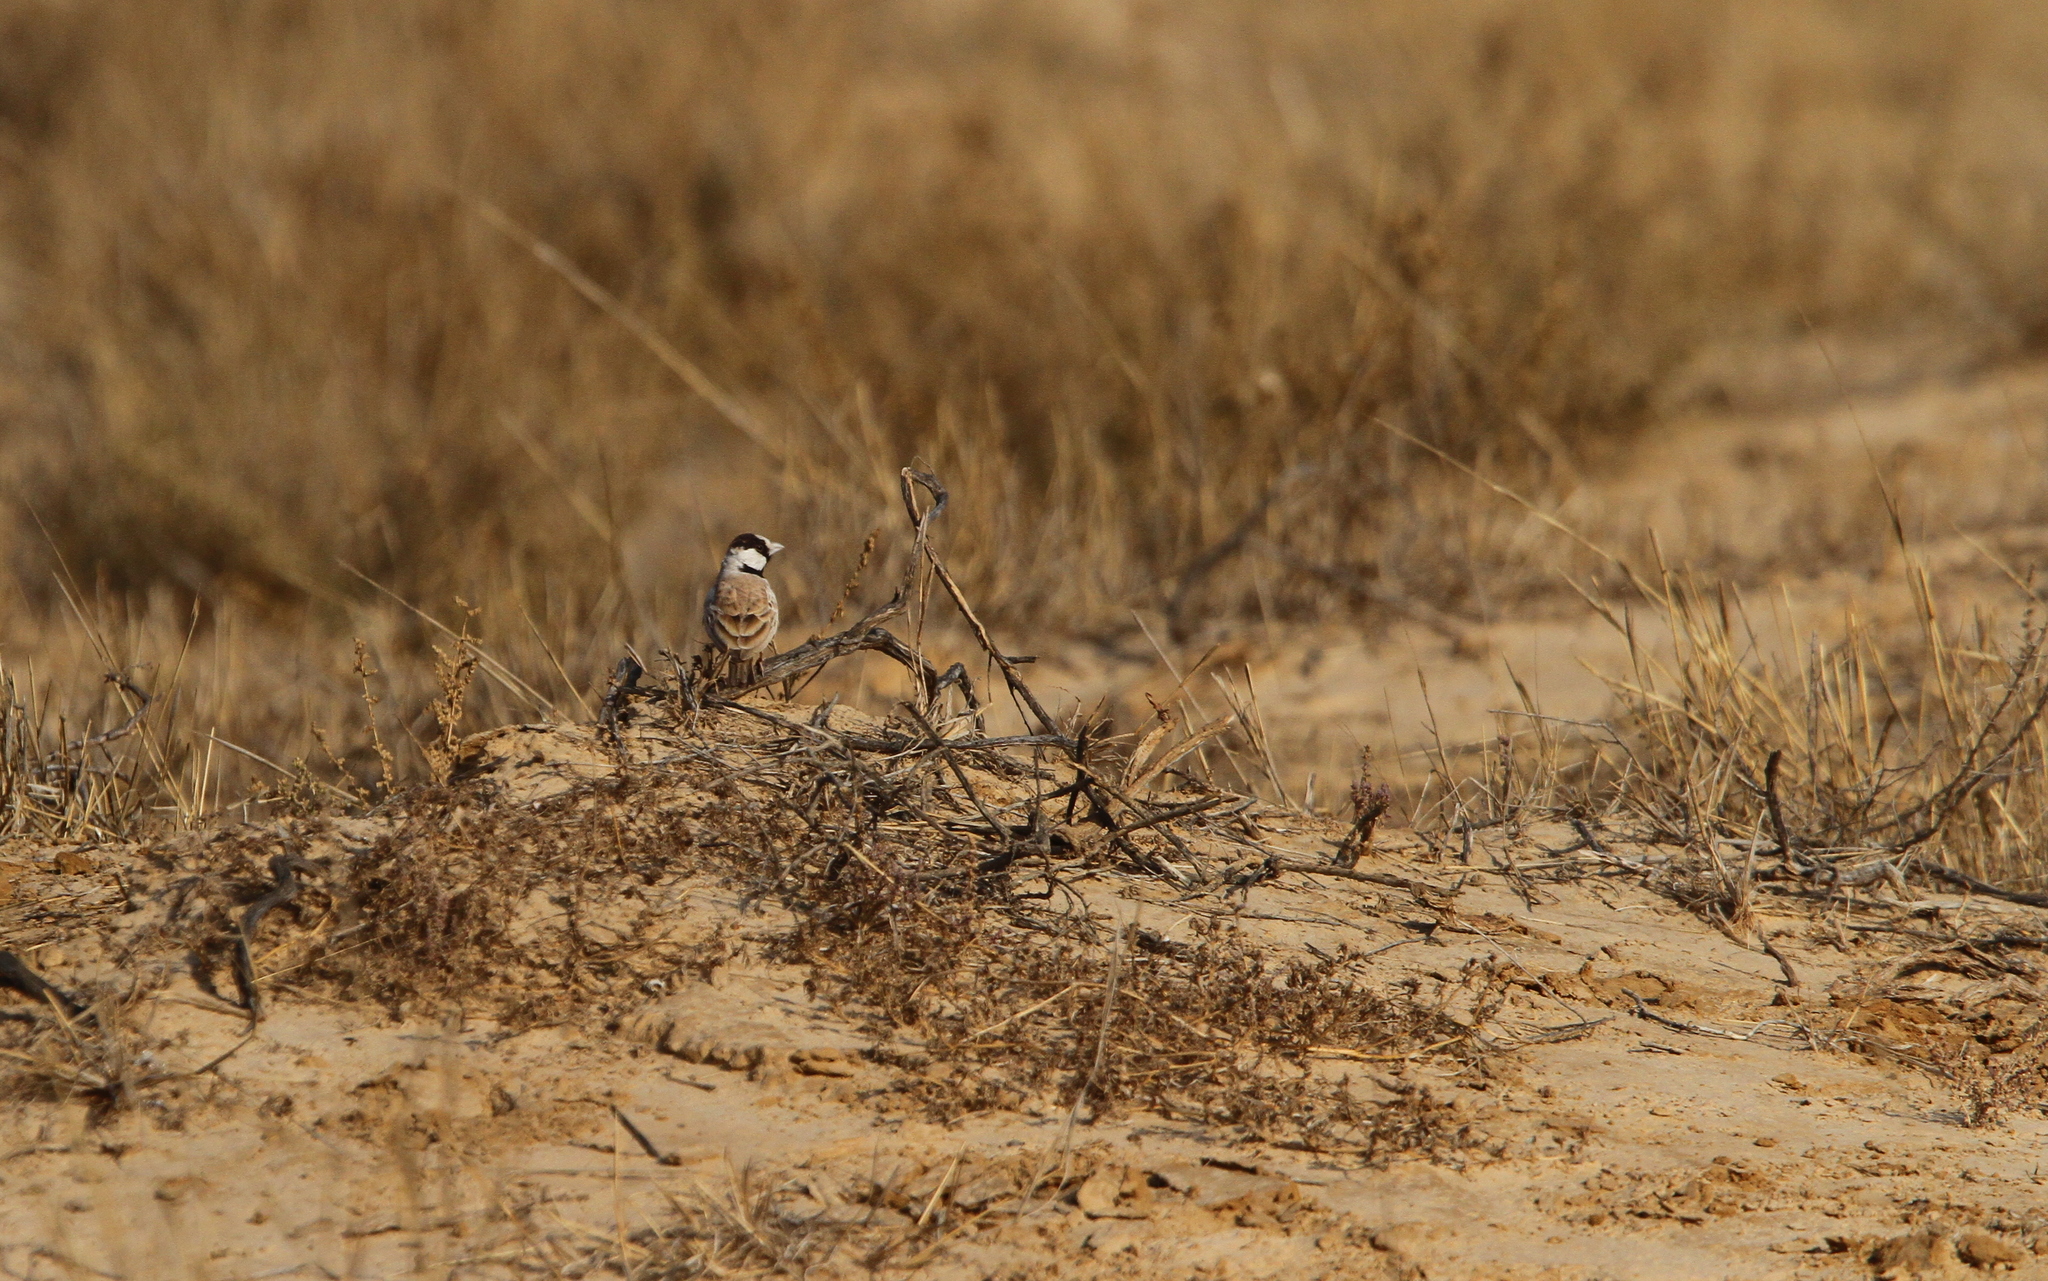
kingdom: Animalia
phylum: Chordata
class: Aves
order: Passeriformes
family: Alaudidae
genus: Eremopterix
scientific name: Eremopterix nigriceps
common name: Black-crowned sparrow-lark
